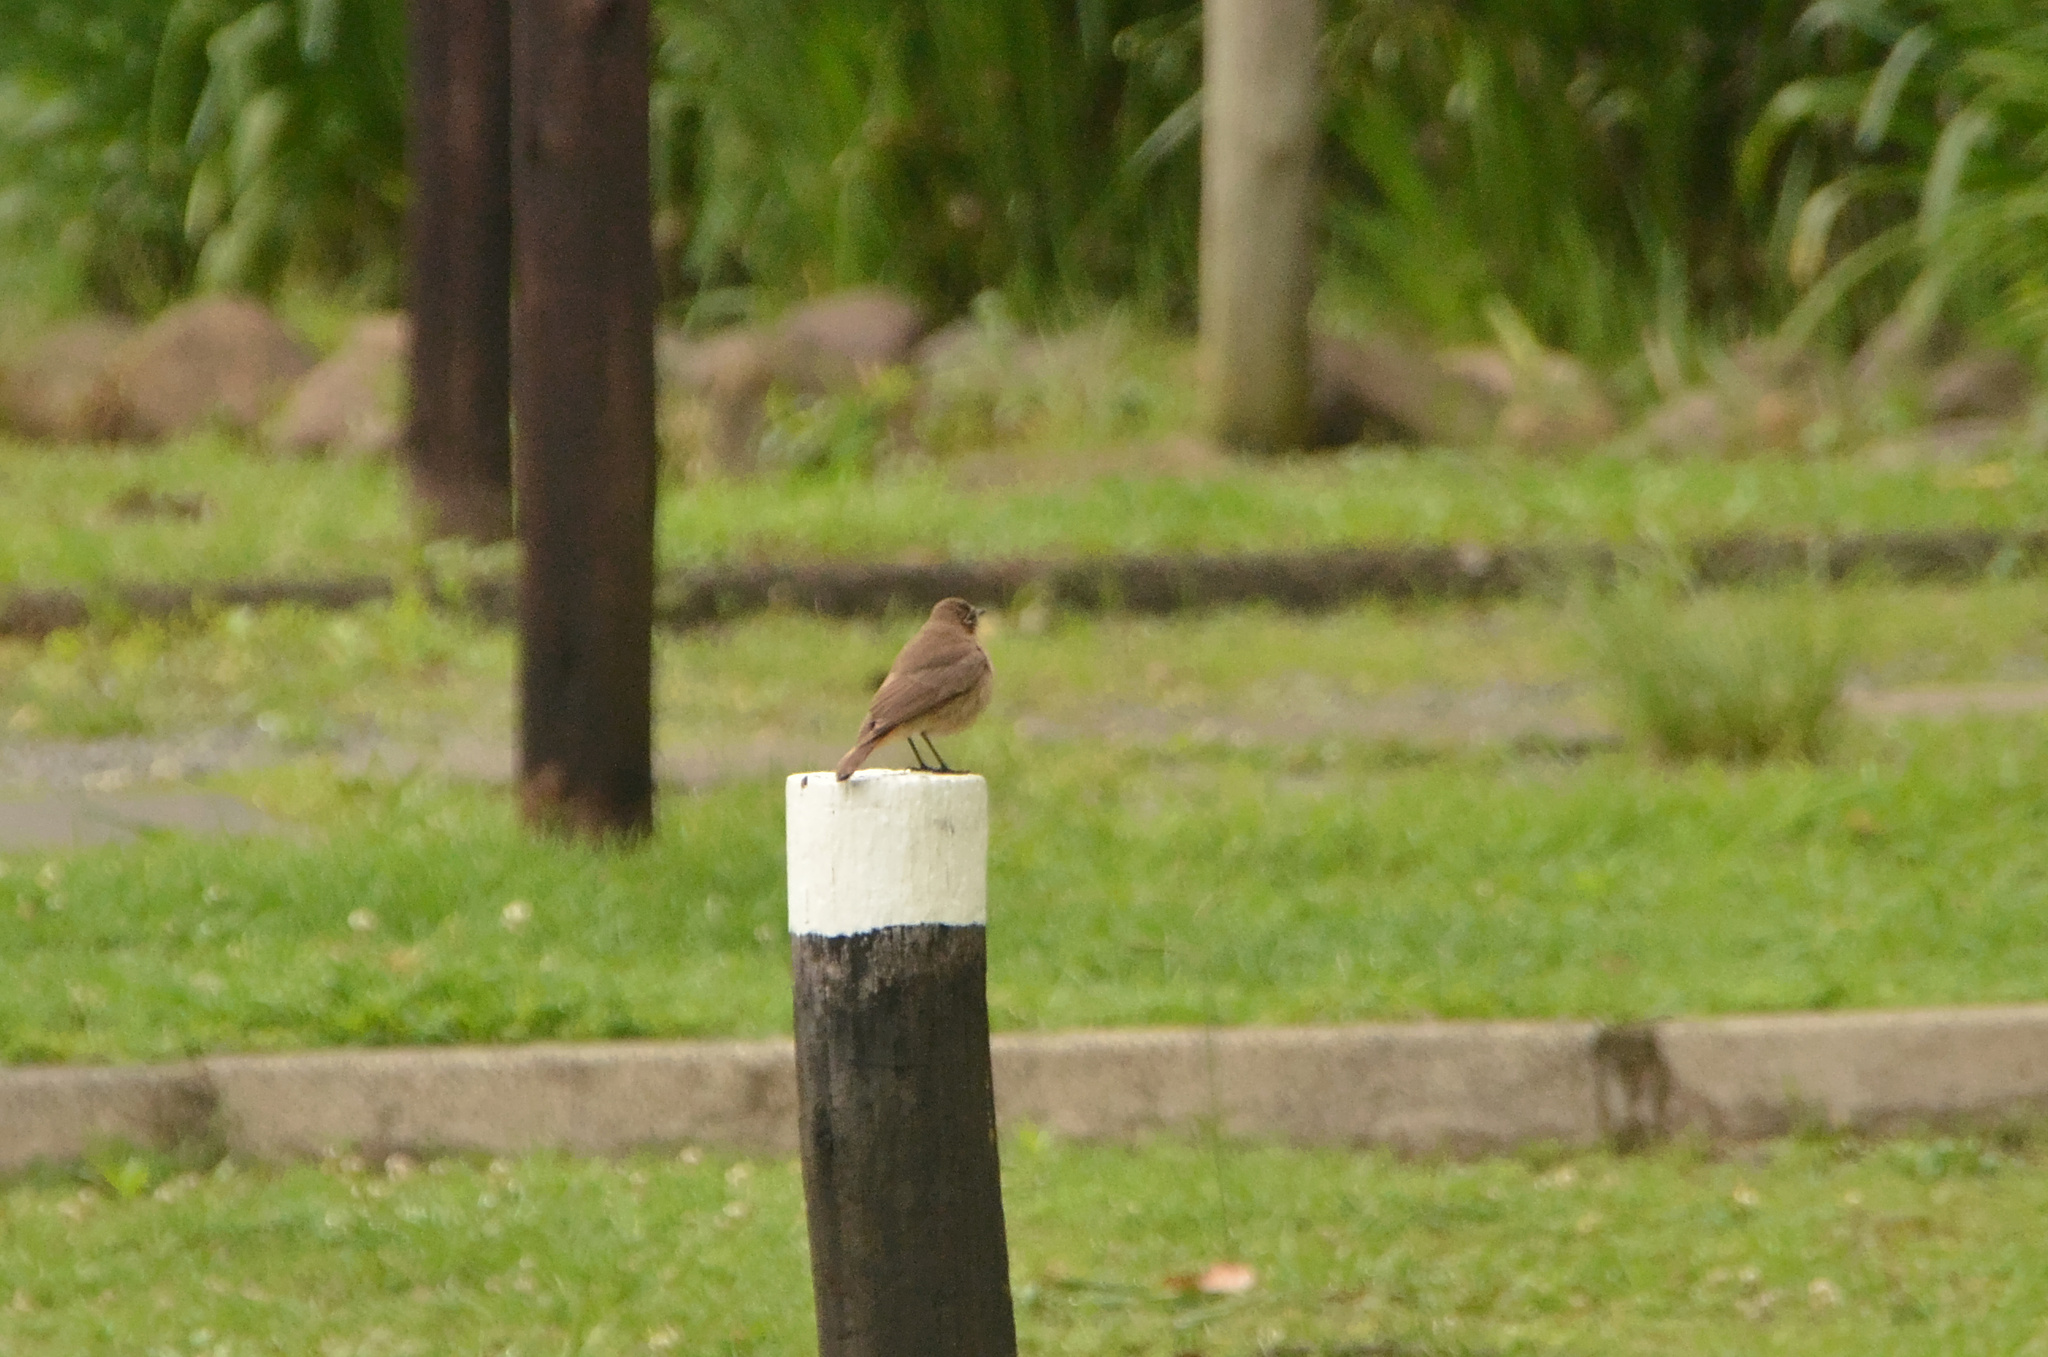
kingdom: Animalia
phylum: Chordata
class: Aves
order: Passeriformes
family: Muscicapidae
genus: Oenanthe
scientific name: Oenanthe familiaris
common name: Familiar chat
